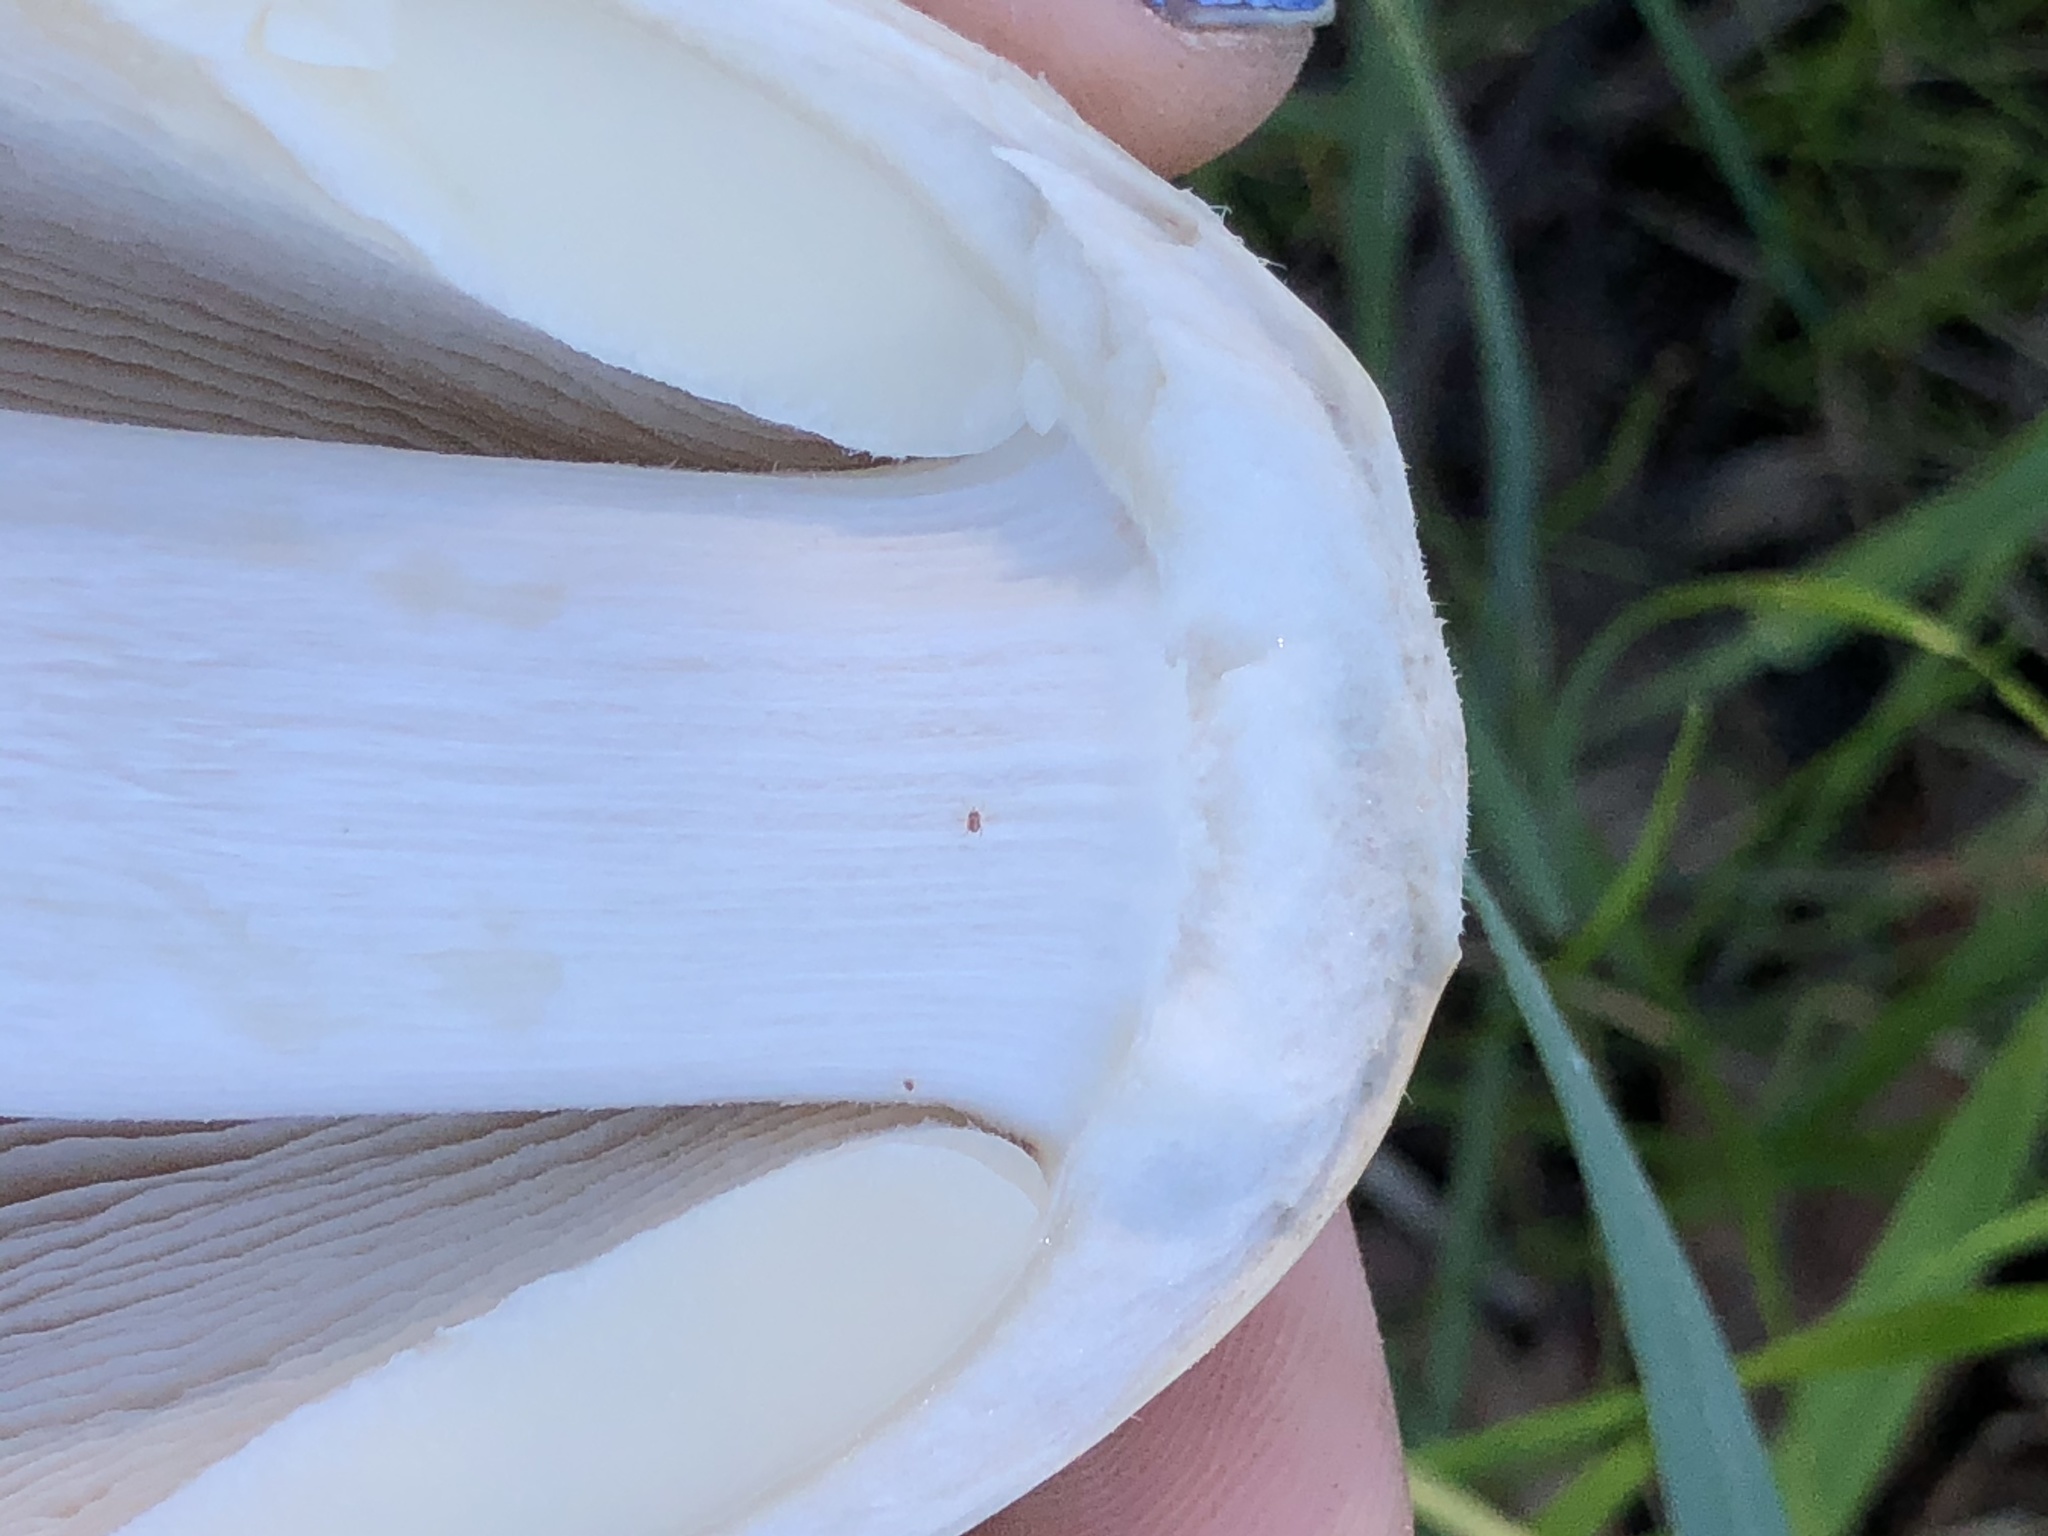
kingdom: Fungi
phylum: Basidiomycota
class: Agaricomycetes
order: Agaricales
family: Pluteaceae
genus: Volvopluteus
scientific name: Volvopluteus gloiocephalus
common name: Stubble rosegill
